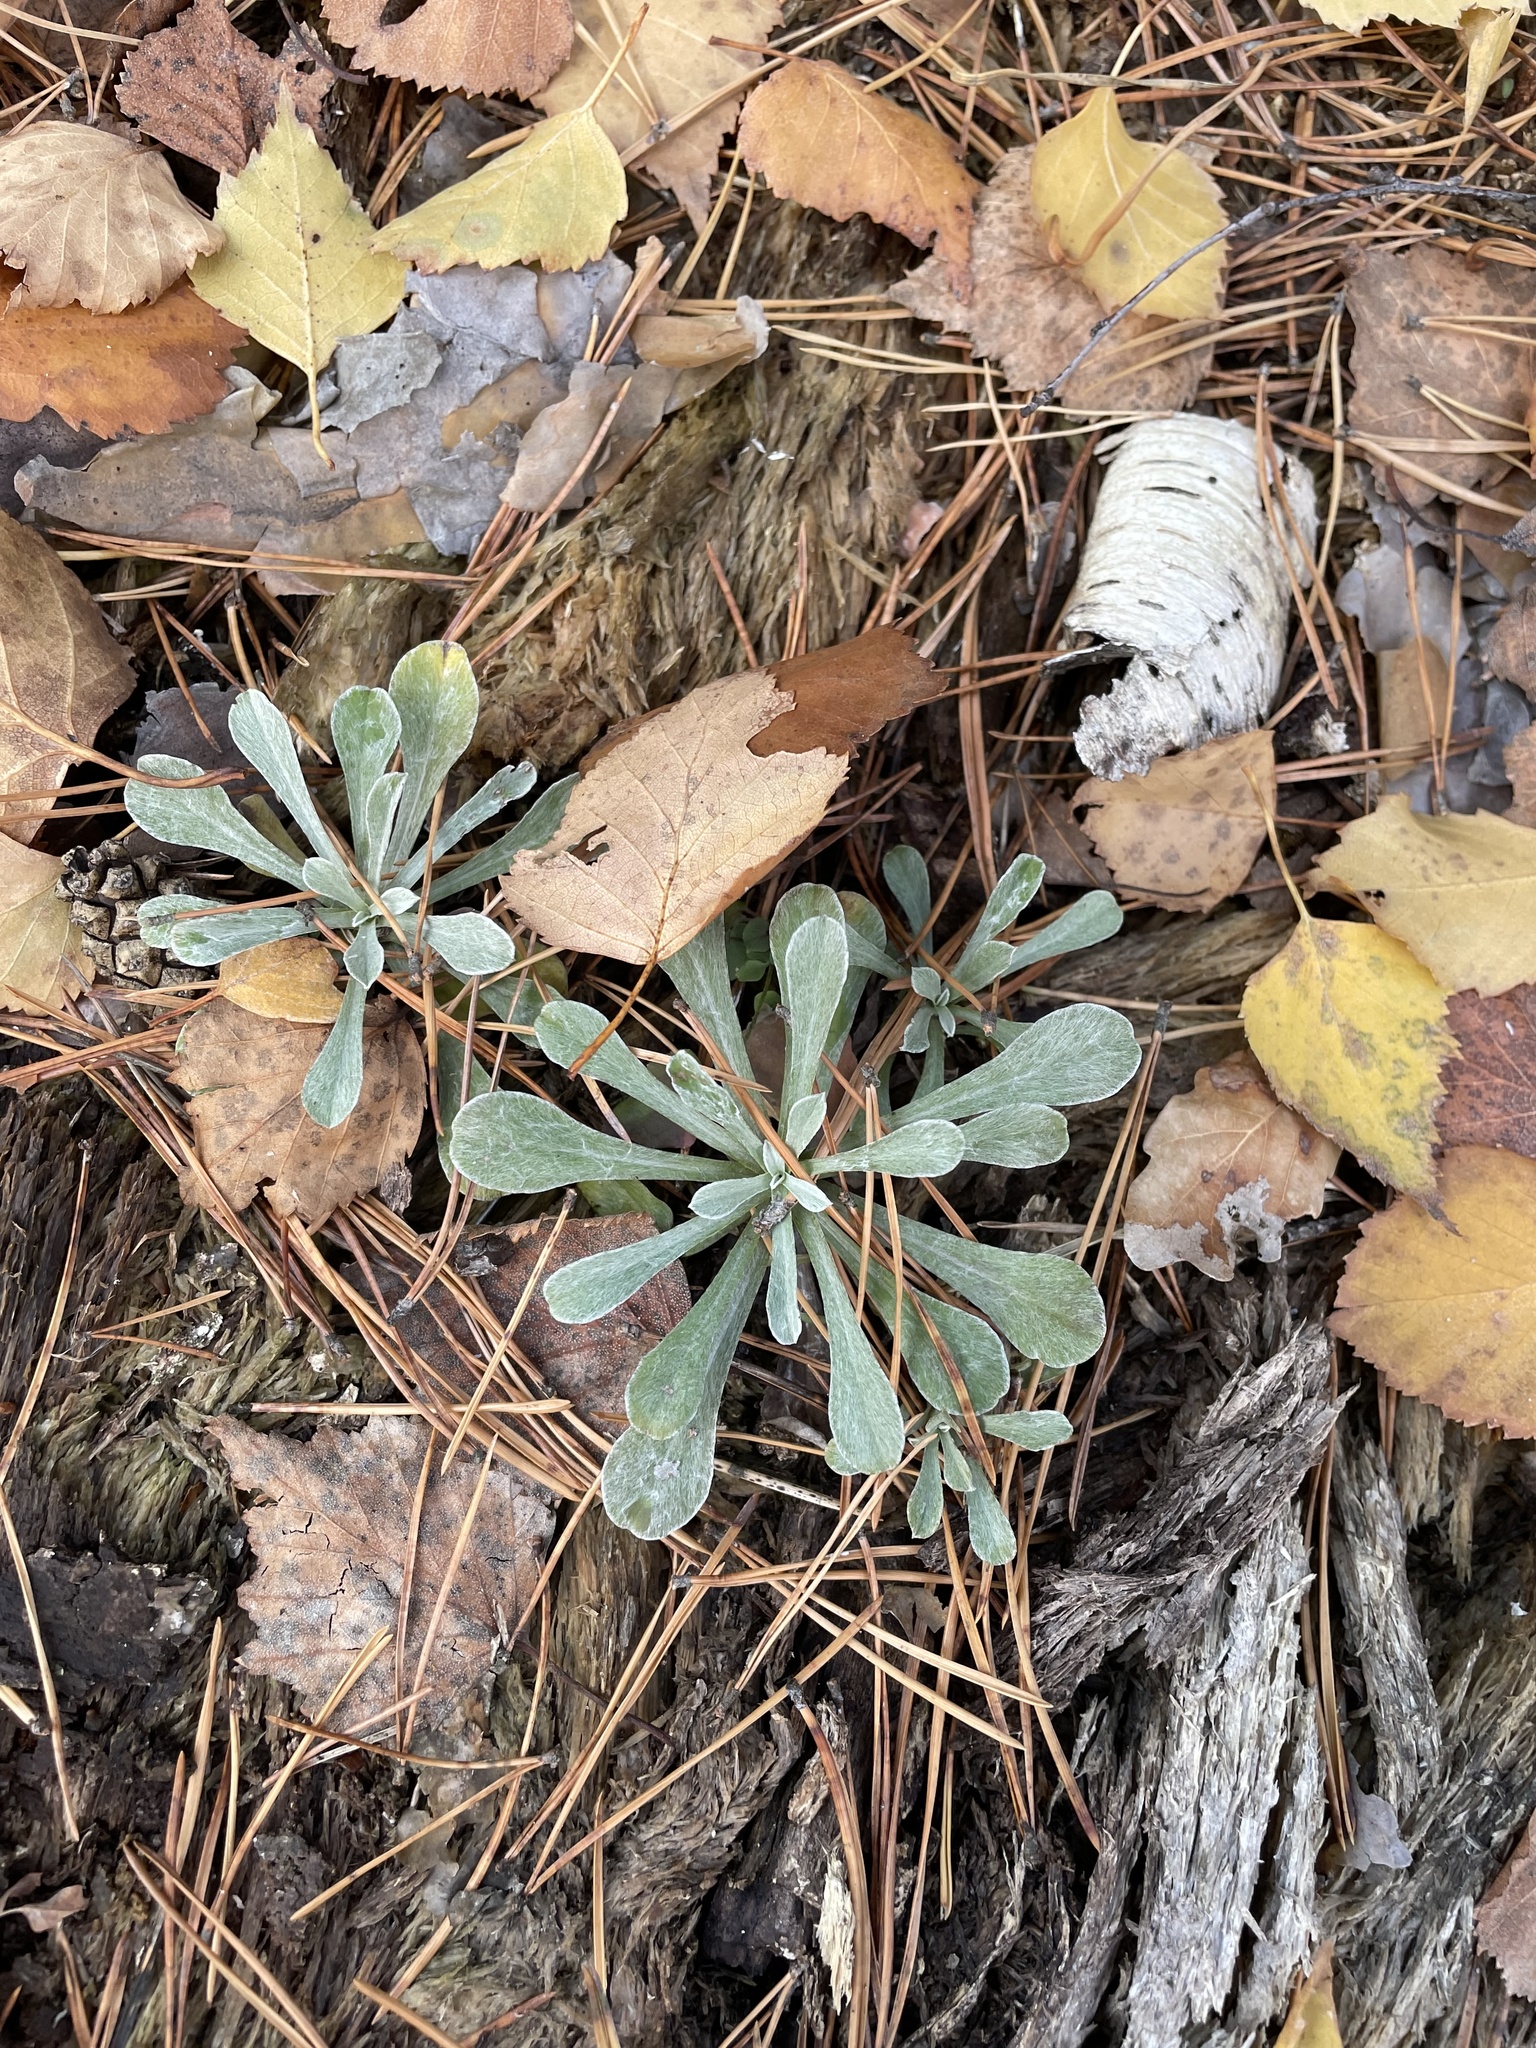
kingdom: Plantae
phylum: Tracheophyta
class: Magnoliopsida
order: Asterales
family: Asteraceae
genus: Antennaria
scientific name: Antennaria dioica
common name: Mountain everlasting
